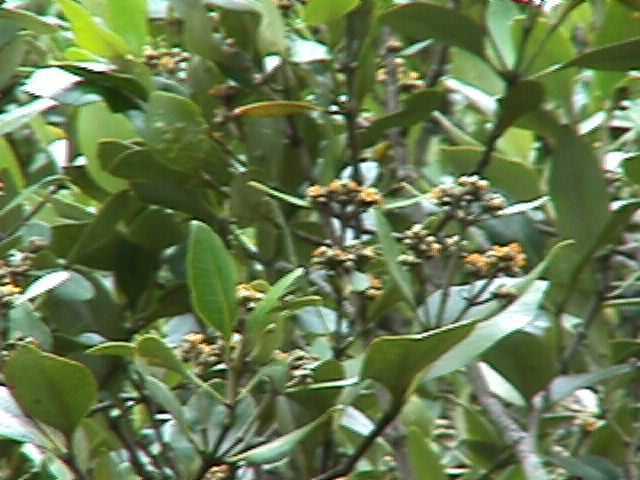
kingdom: Plantae
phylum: Tracheophyta
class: Magnoliopsida
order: Lamiales
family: Acanthaceae
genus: Avicennia
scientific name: Avicennia marina
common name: Gray mangrove
